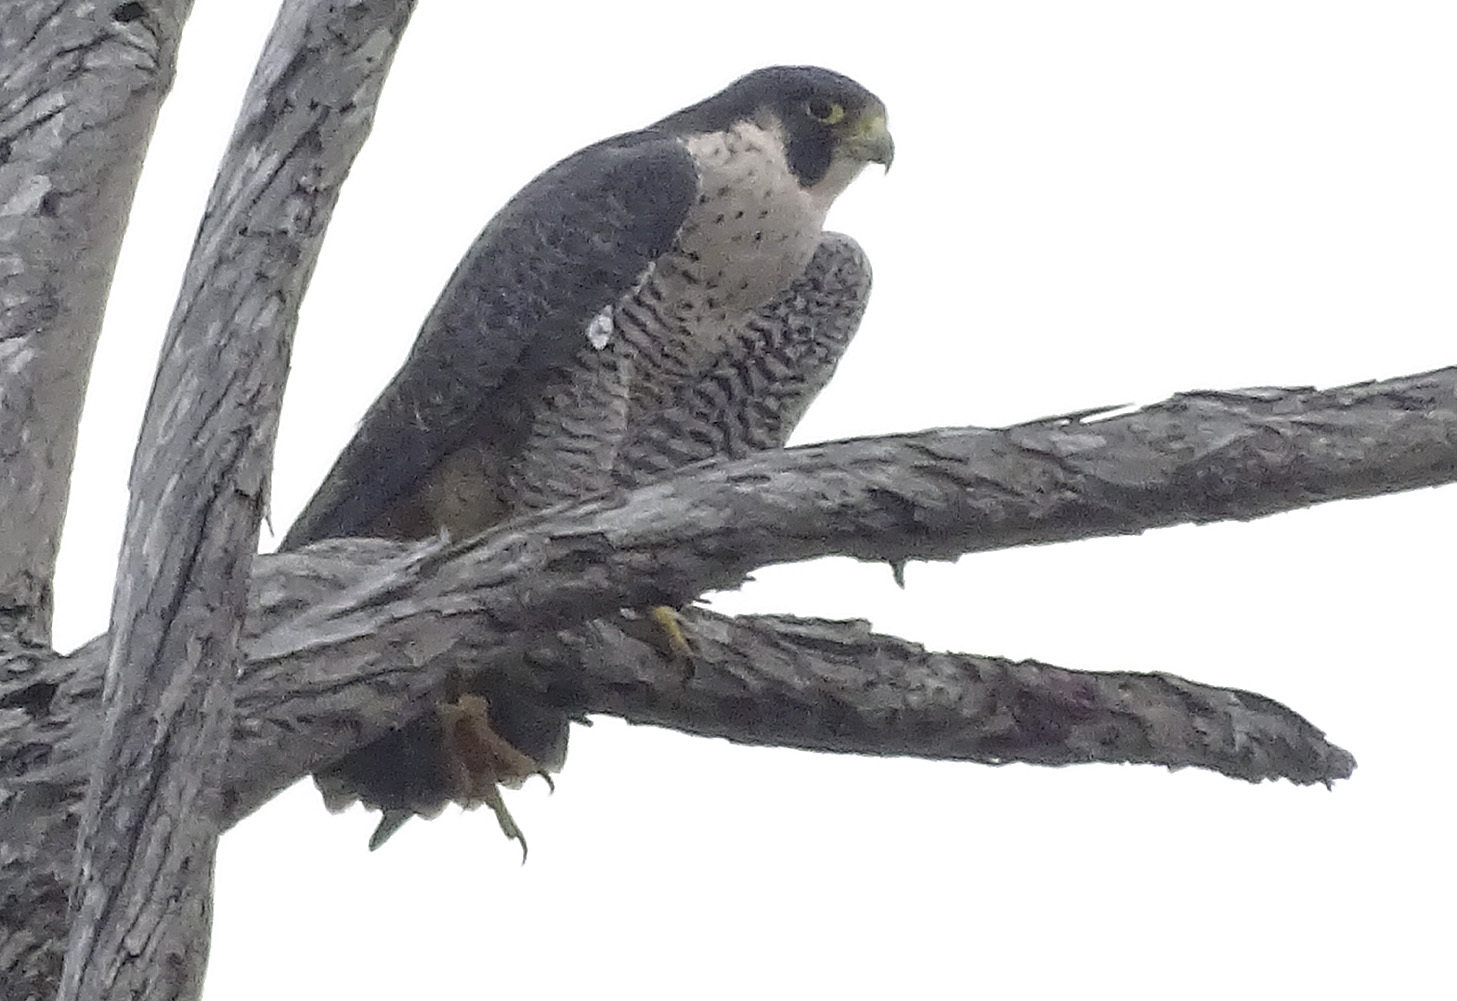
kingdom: Animalia
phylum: Chordata
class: Aves
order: Falconiformes
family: Falconidae
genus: Falco
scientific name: Falco peregrinus
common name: Peregrine falcon
